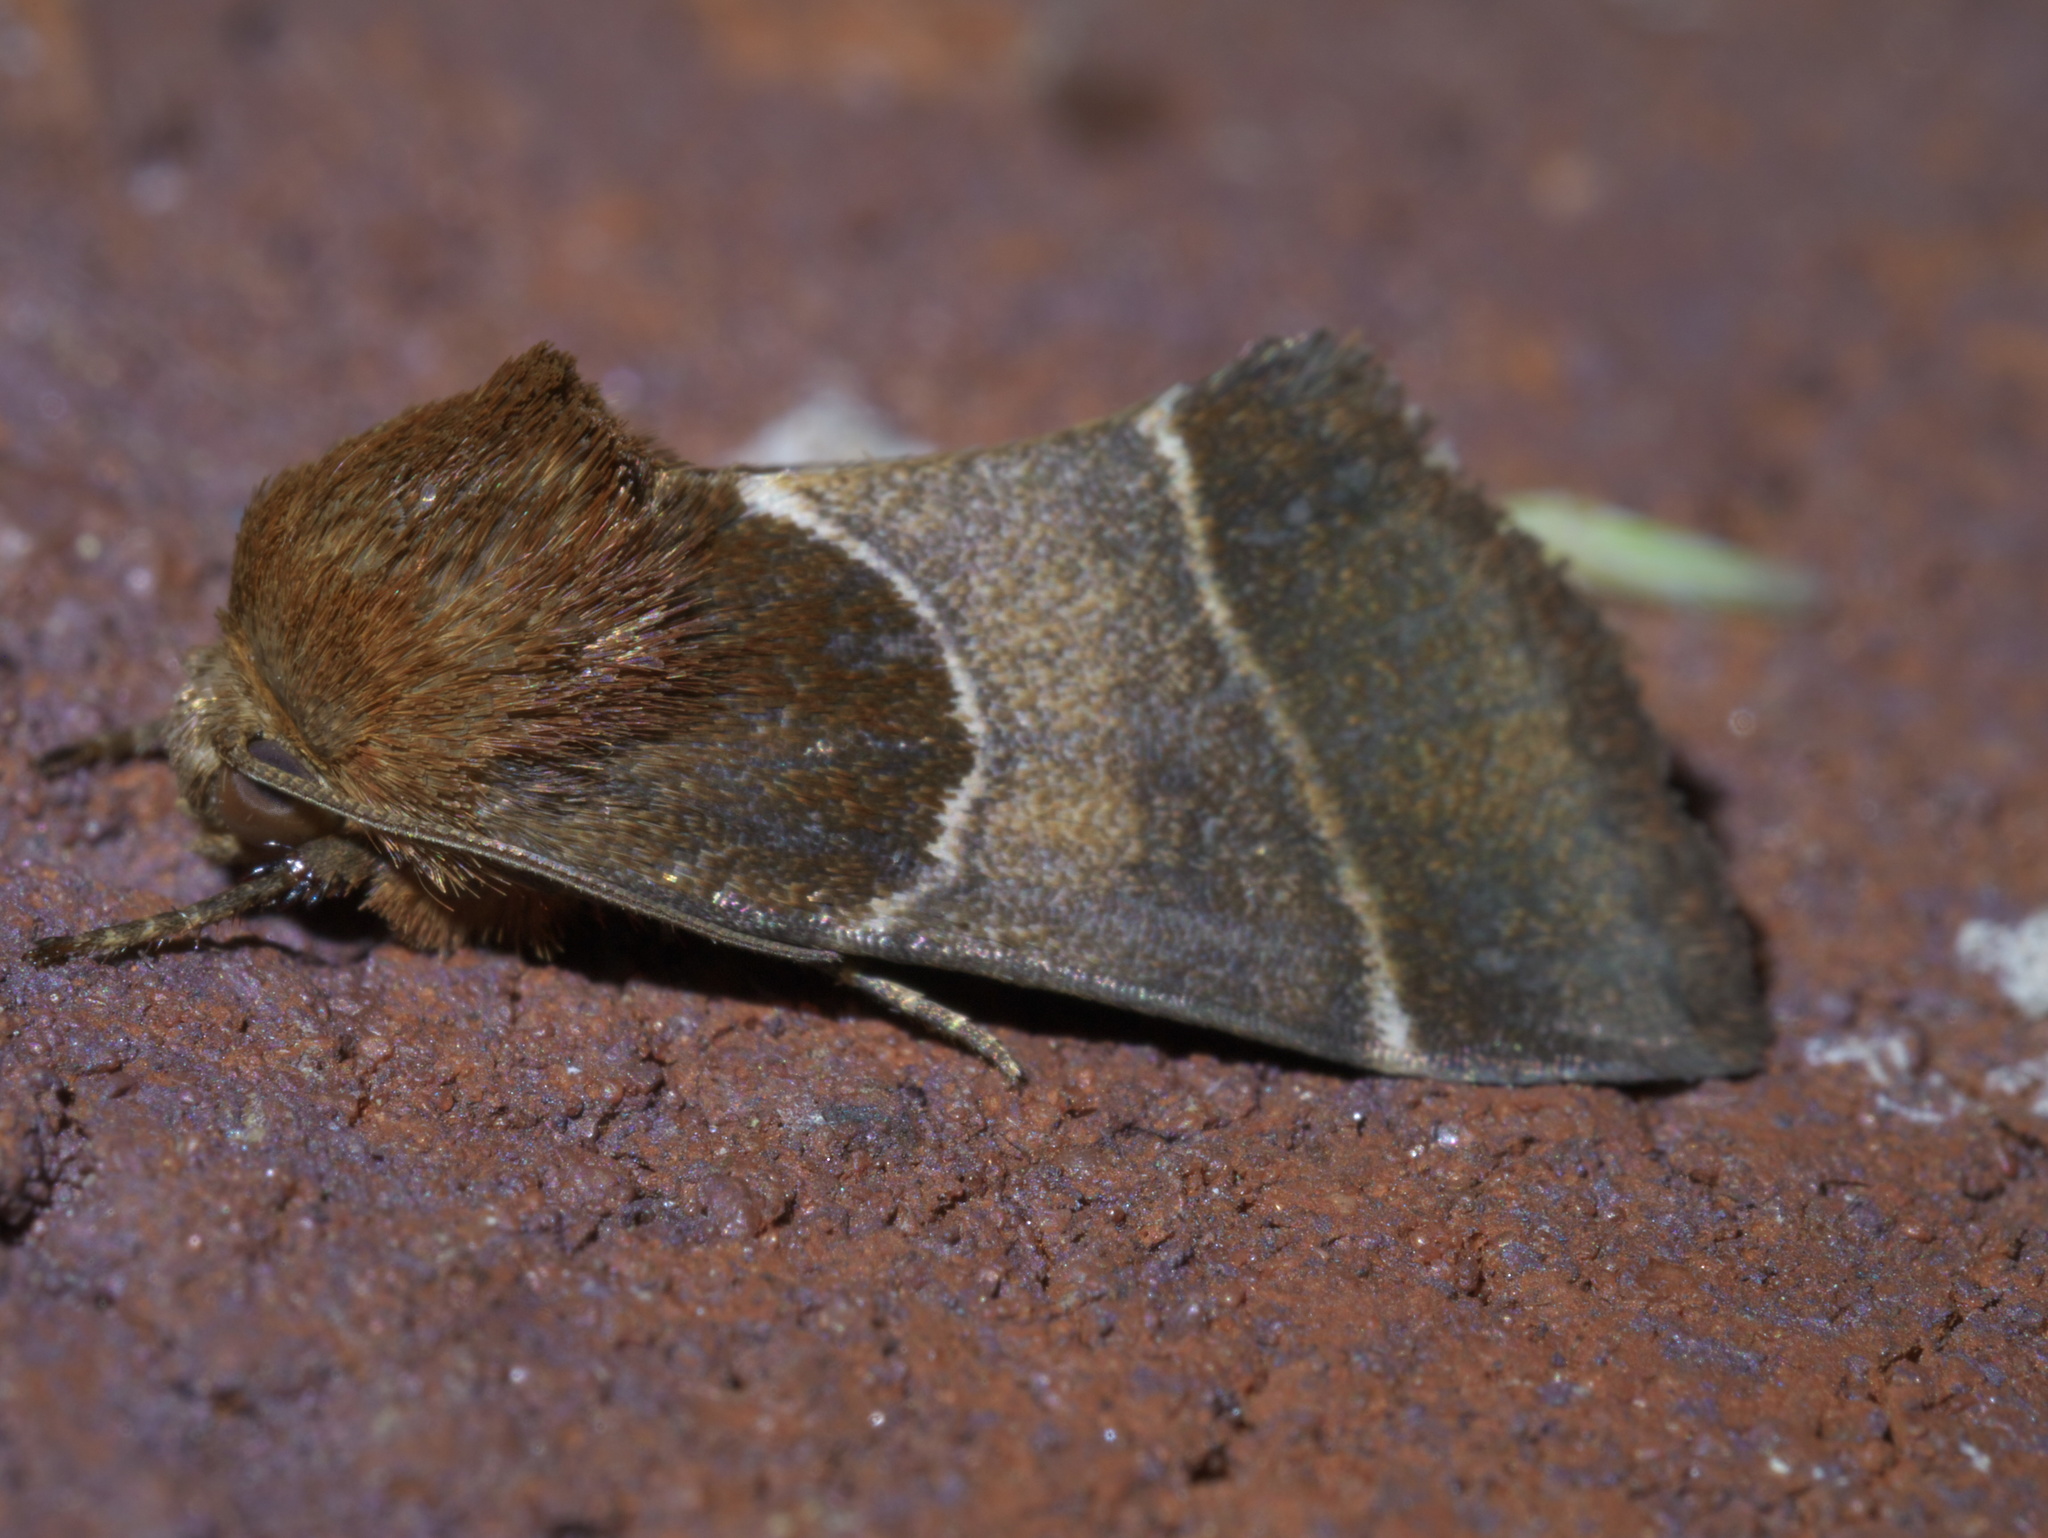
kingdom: Animalia
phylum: Arthropoda
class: Insecta
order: Lepidoptera
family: Noctuidae
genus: Schinia
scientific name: Schinia arcigera
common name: Arcigera flower moth
